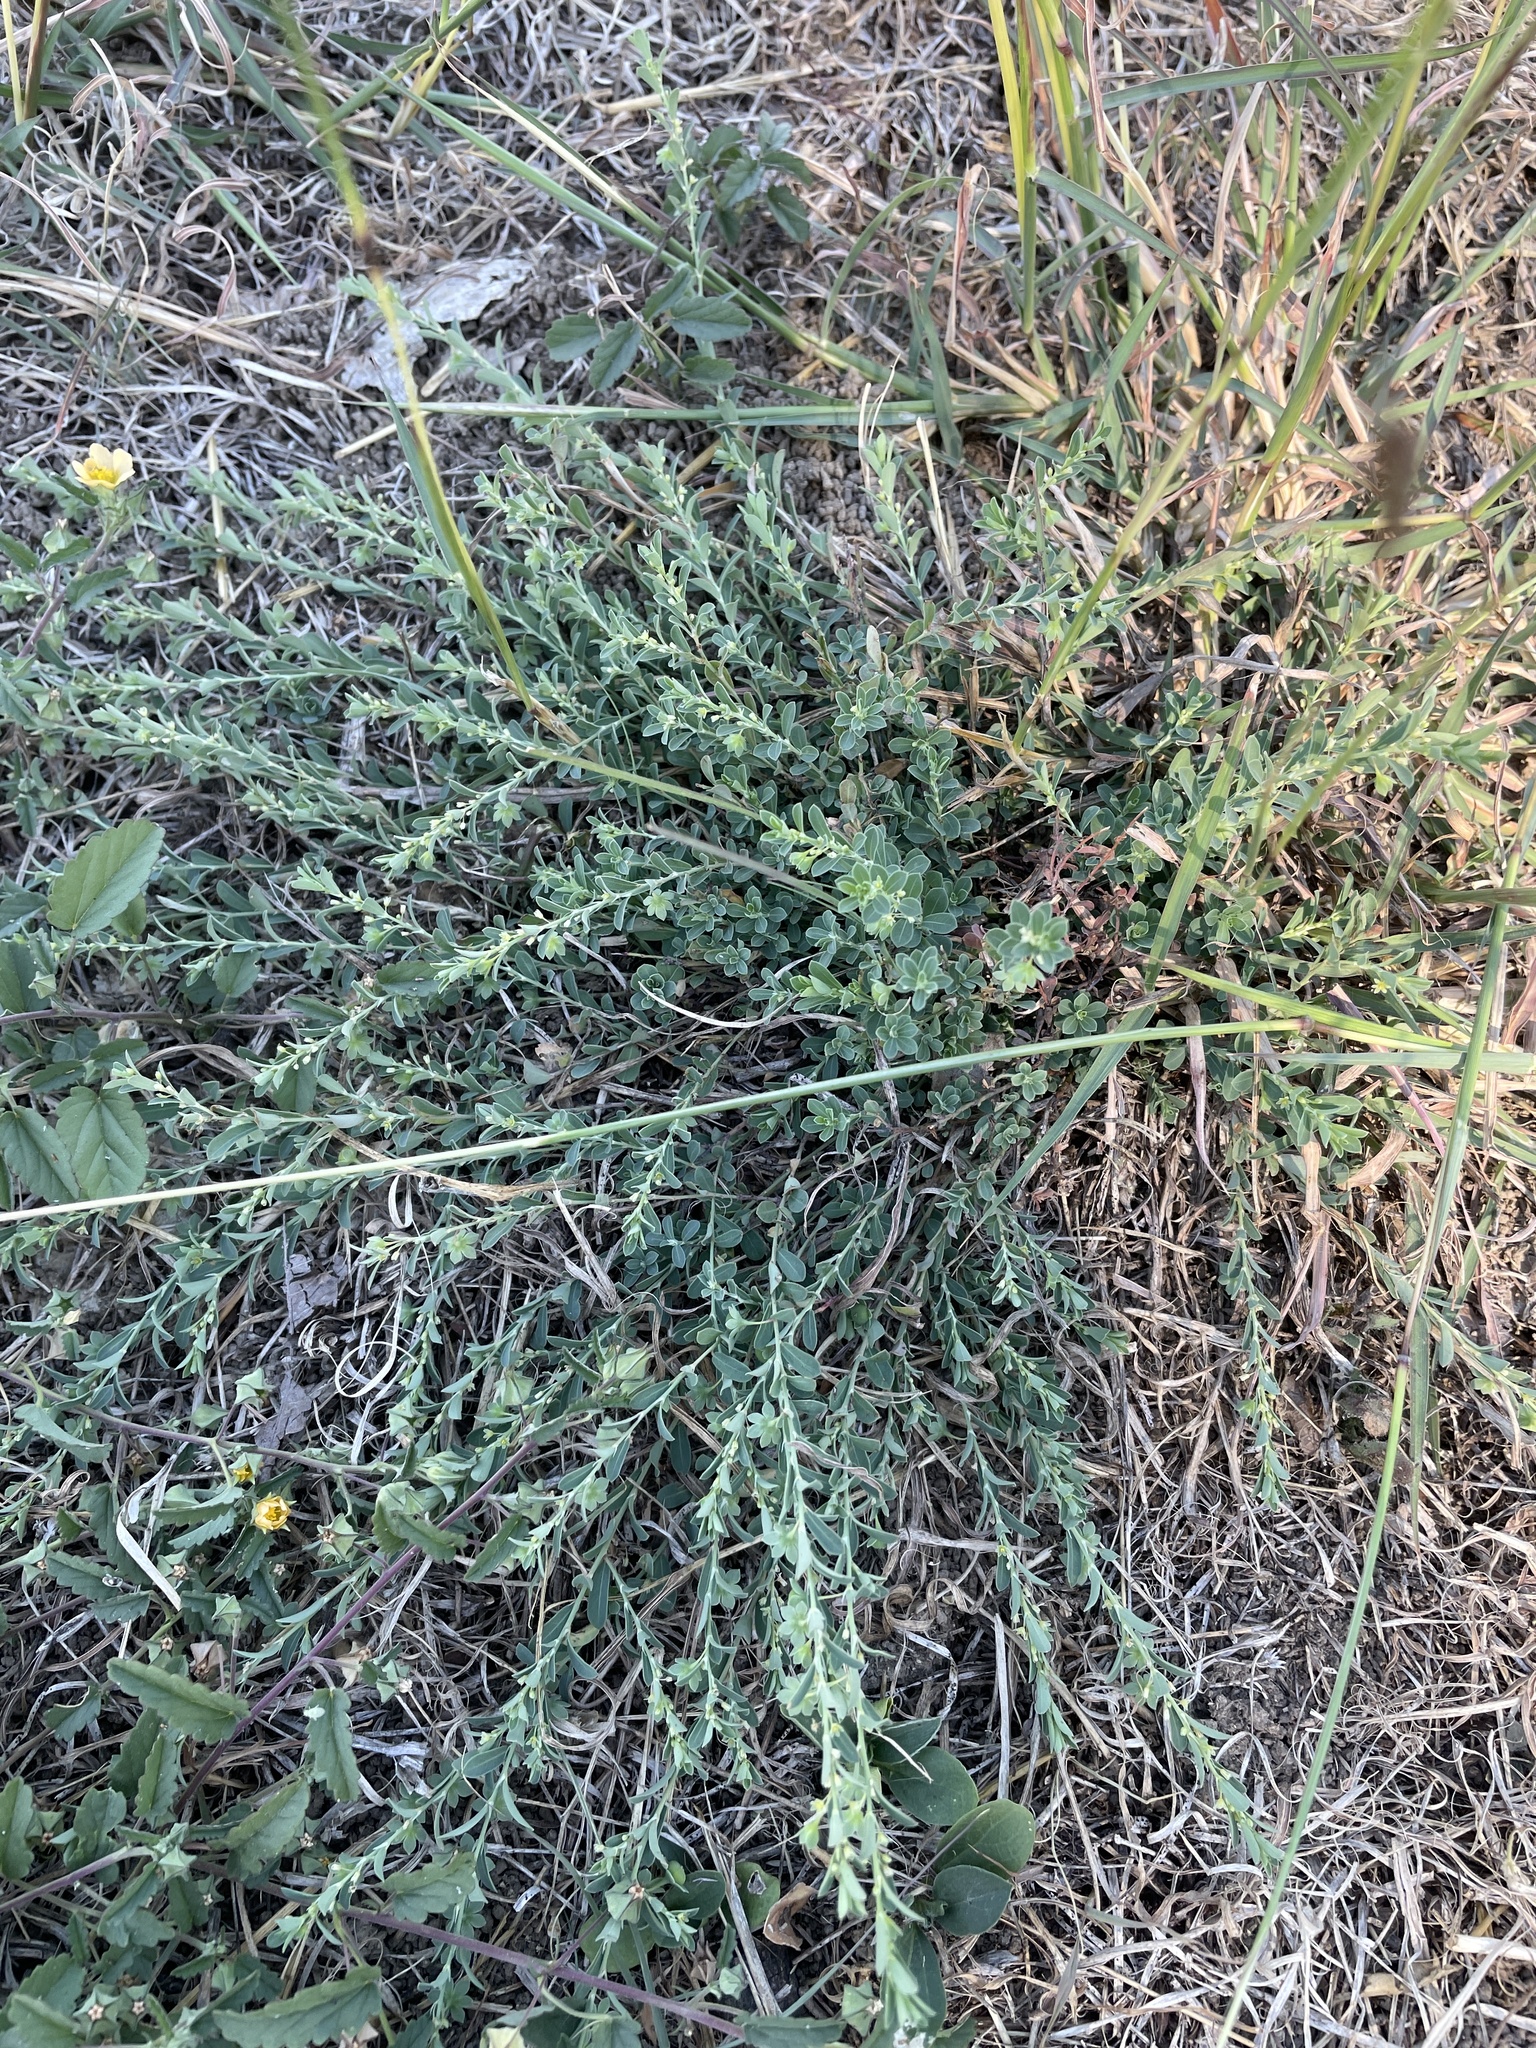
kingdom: Plantae
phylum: Tracheophyta
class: Magnoliopsida
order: Malpighiales
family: Phyllanthaceae
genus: Phyllanthus
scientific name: Phyllanthus polygonoides
